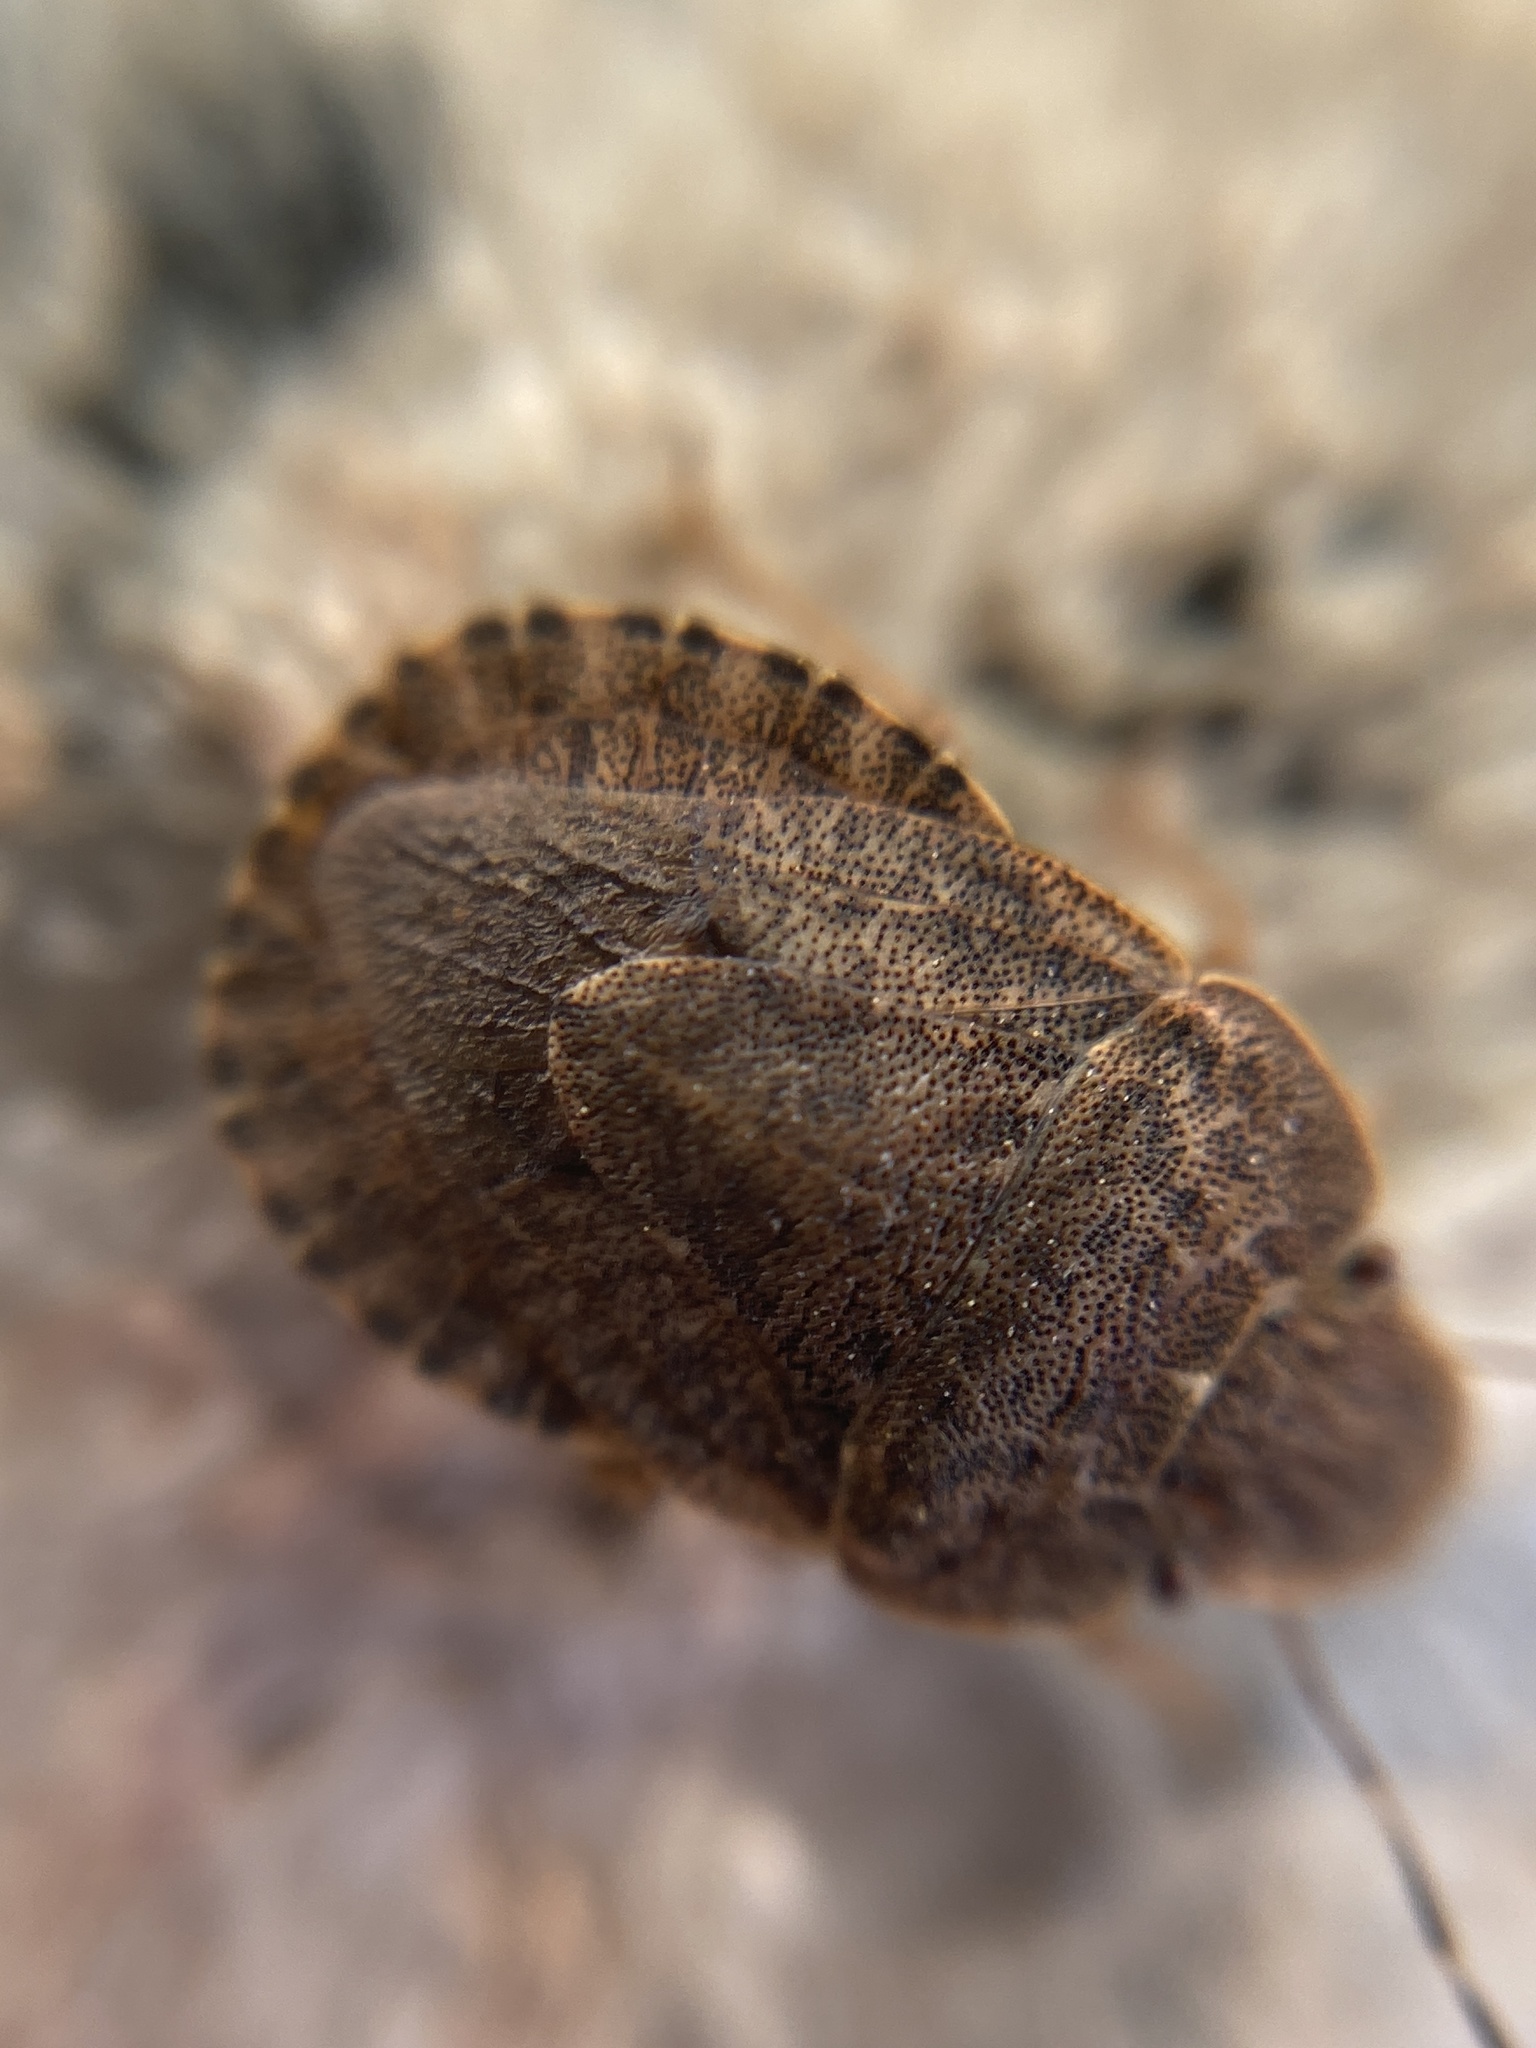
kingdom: Animalia
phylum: Arthropoda
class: Insecta
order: Hemiptera
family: Pentatomidae
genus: Sciocoris
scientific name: Sciocoris microphthalmus
